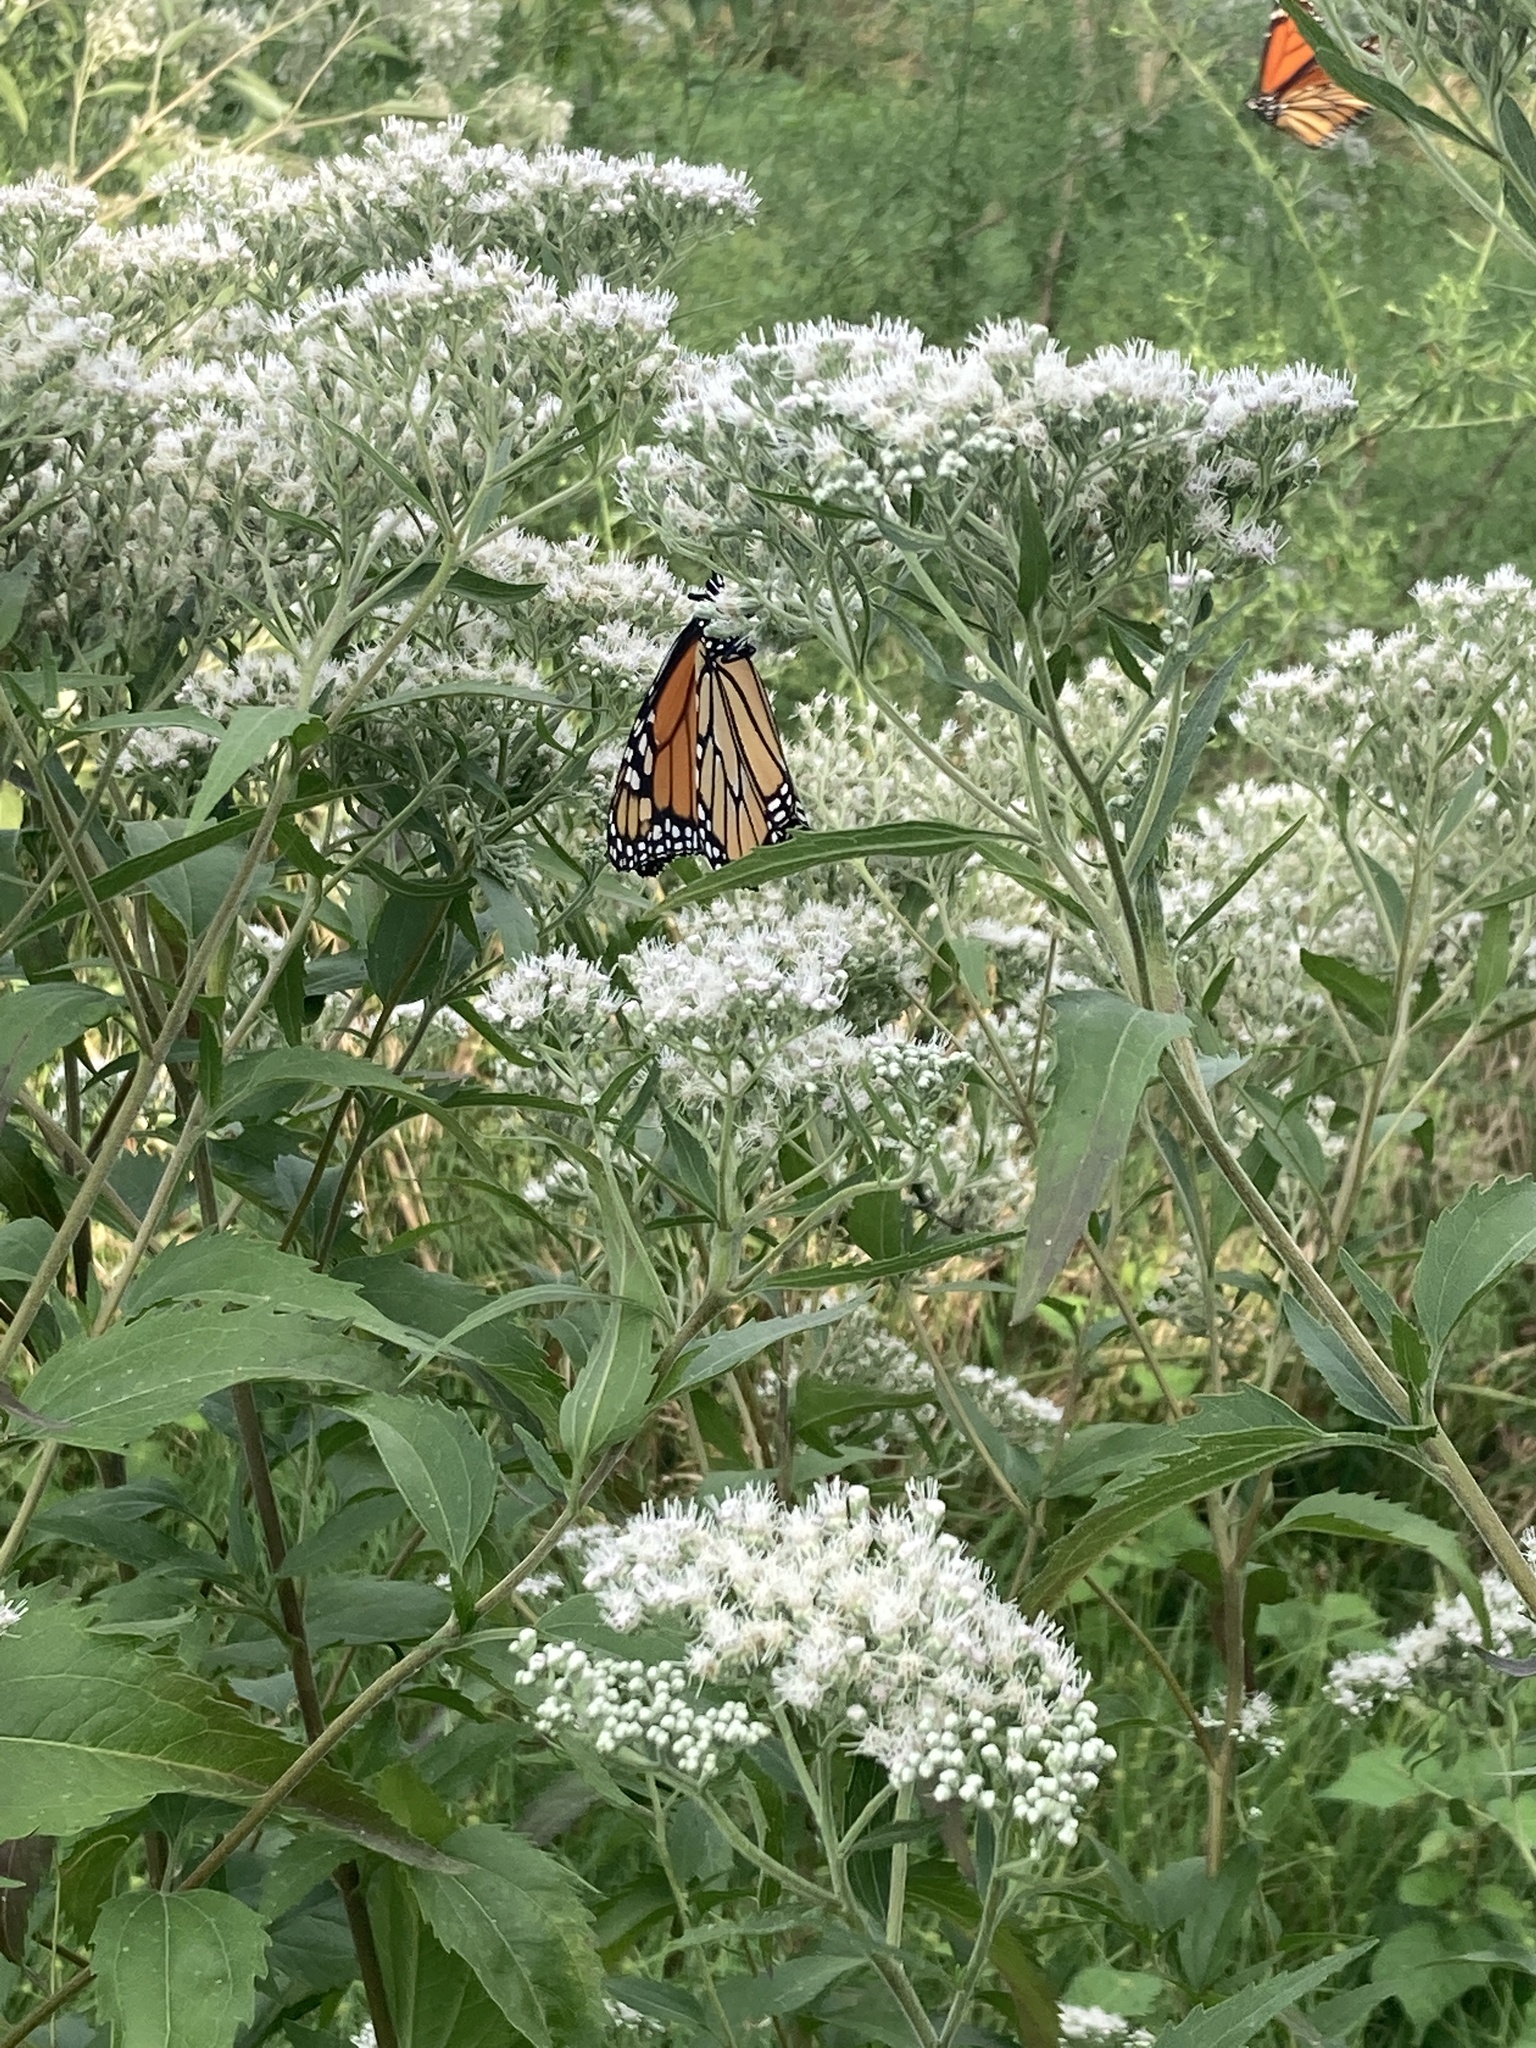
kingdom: Animalia
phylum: Arthropoda
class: Insecta
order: Lepidoptera
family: Nymphalidae
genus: Danaus
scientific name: Danaus plexippus
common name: Monarch
